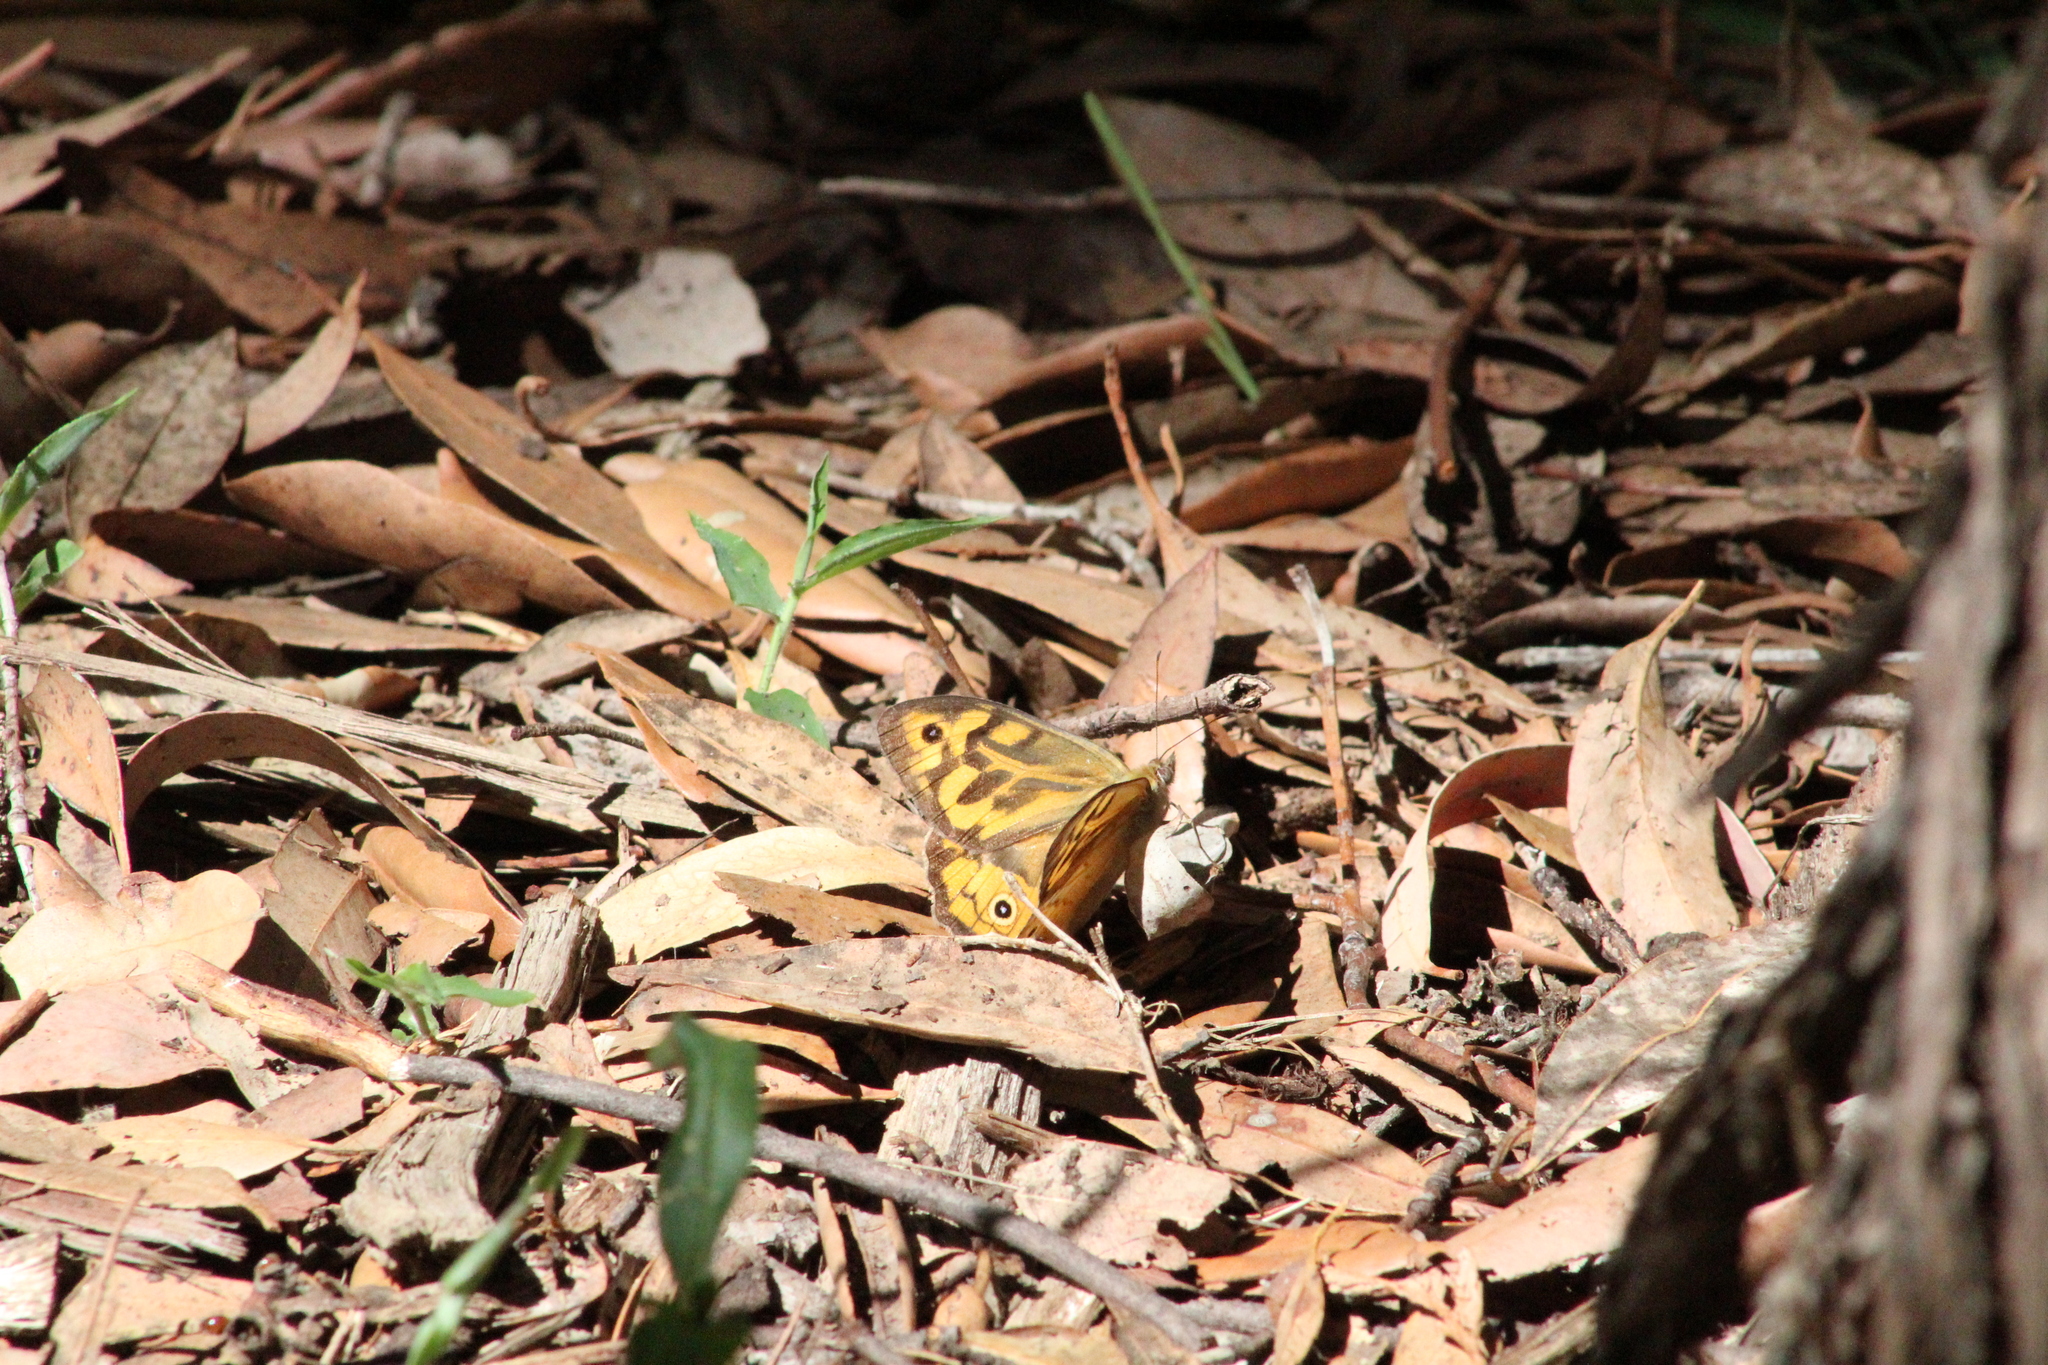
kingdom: Animalia
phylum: Arthropoda
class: Insecta
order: Lepidoptera
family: Nymphalidae
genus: Heteronympha
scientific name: Heteronympha merope
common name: Common brown
